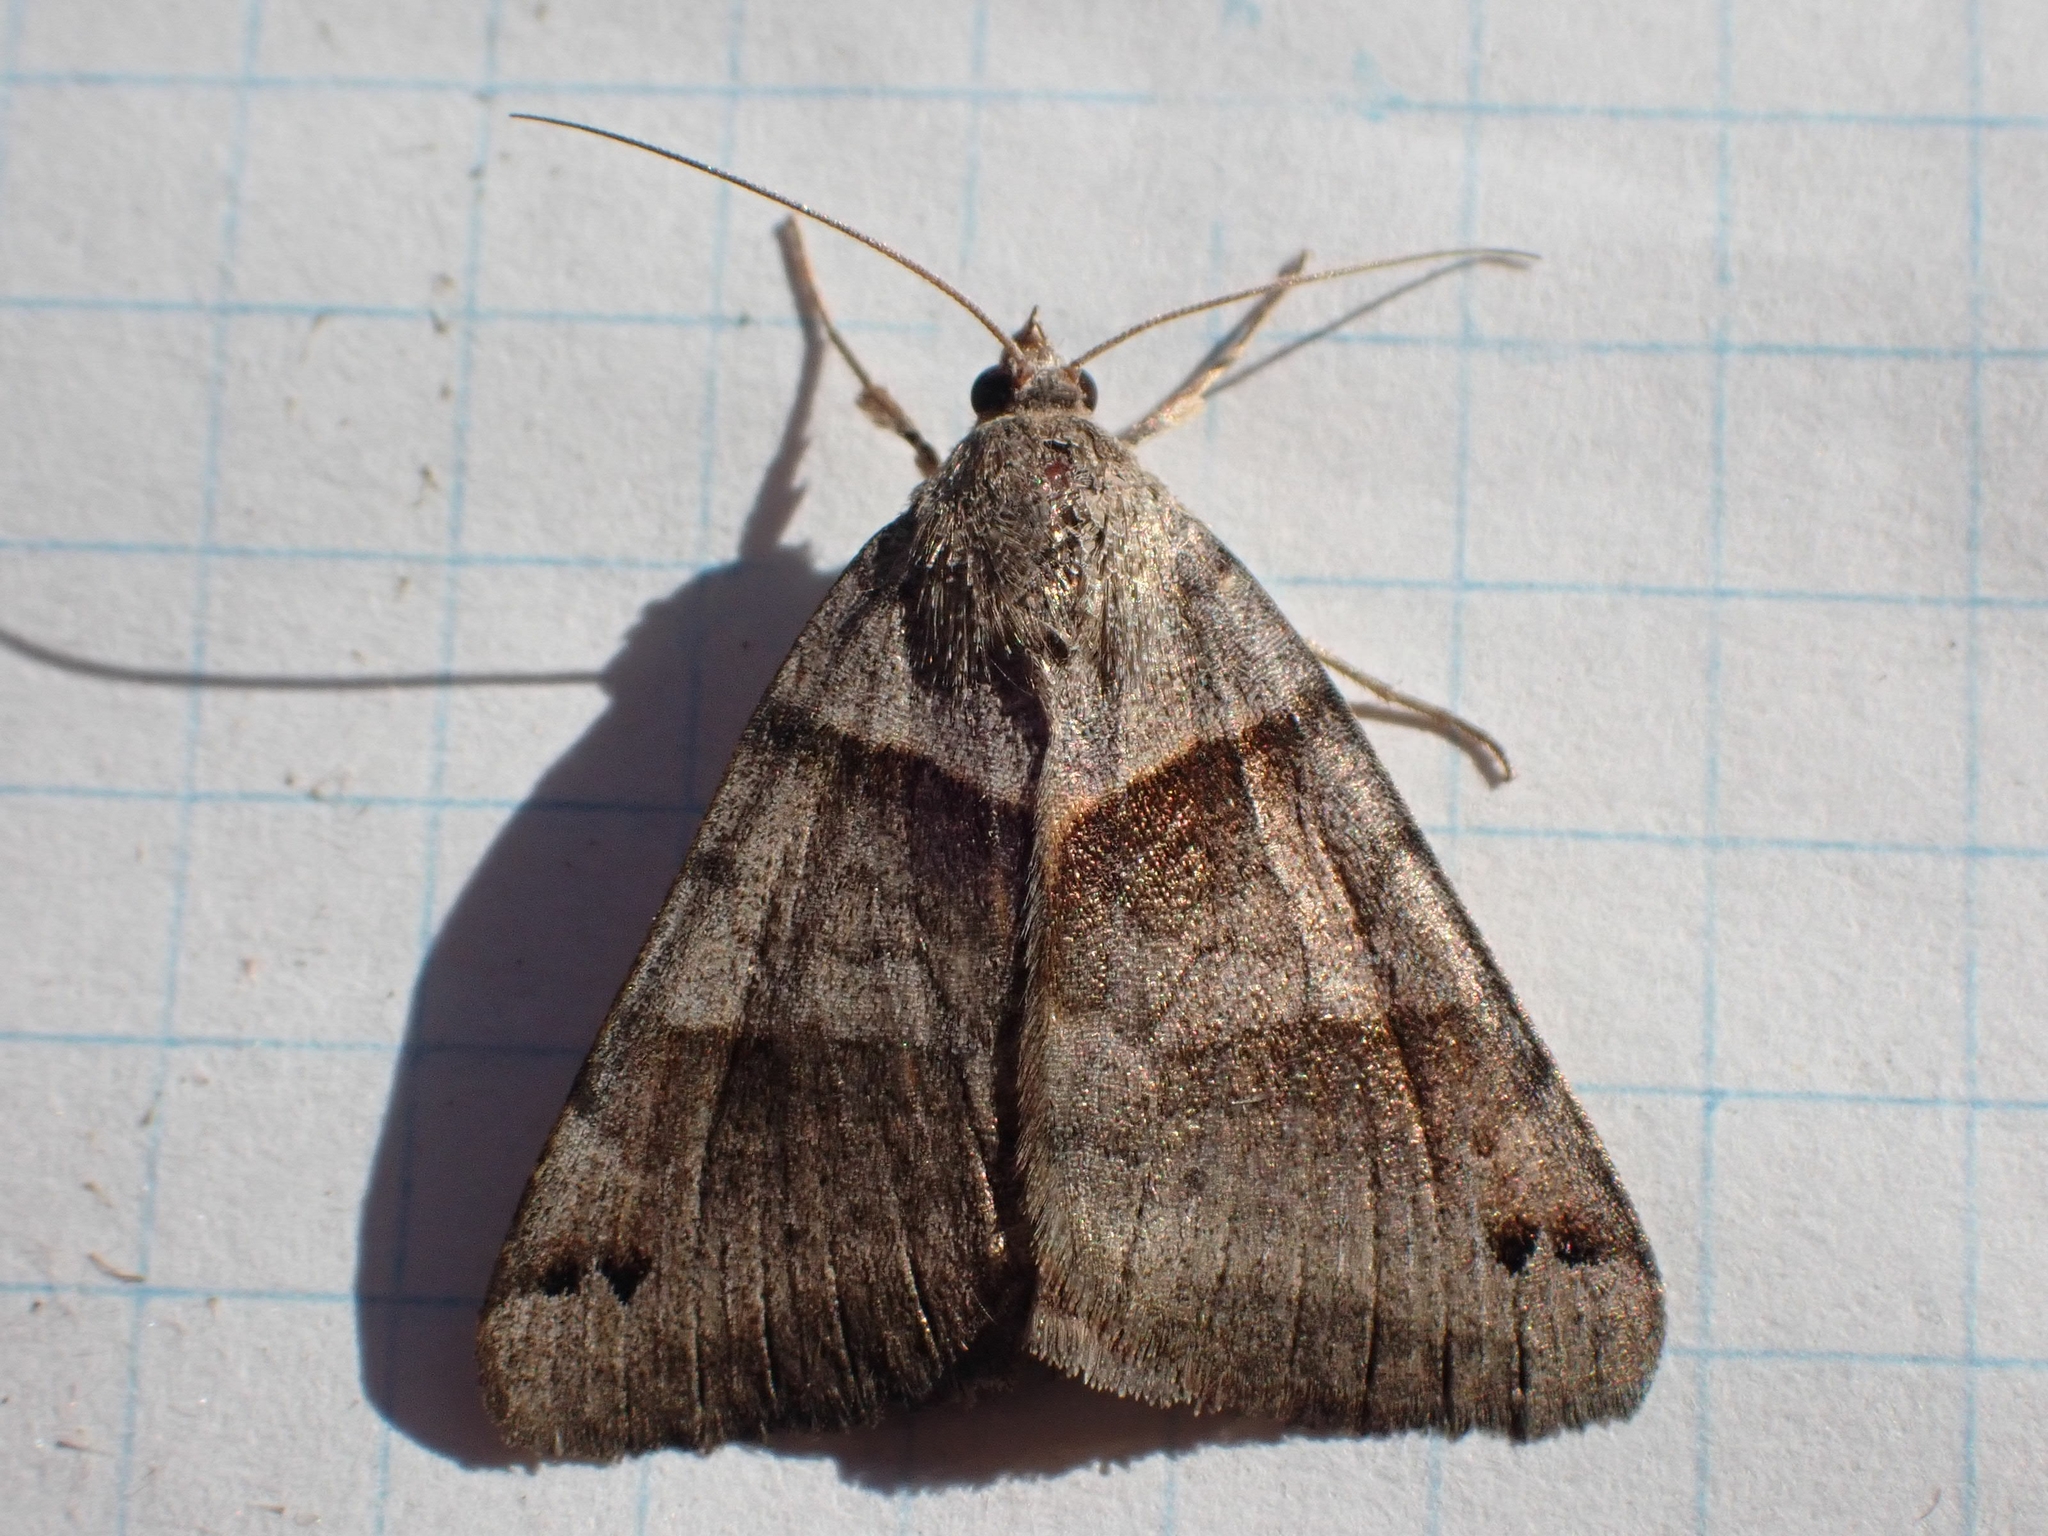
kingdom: Animalia
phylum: Arthropoda
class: Insecta
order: Lepidoptera
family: Erebidae
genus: Caenurgina
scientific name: Caenurgina erechtea
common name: Forage looper moth
